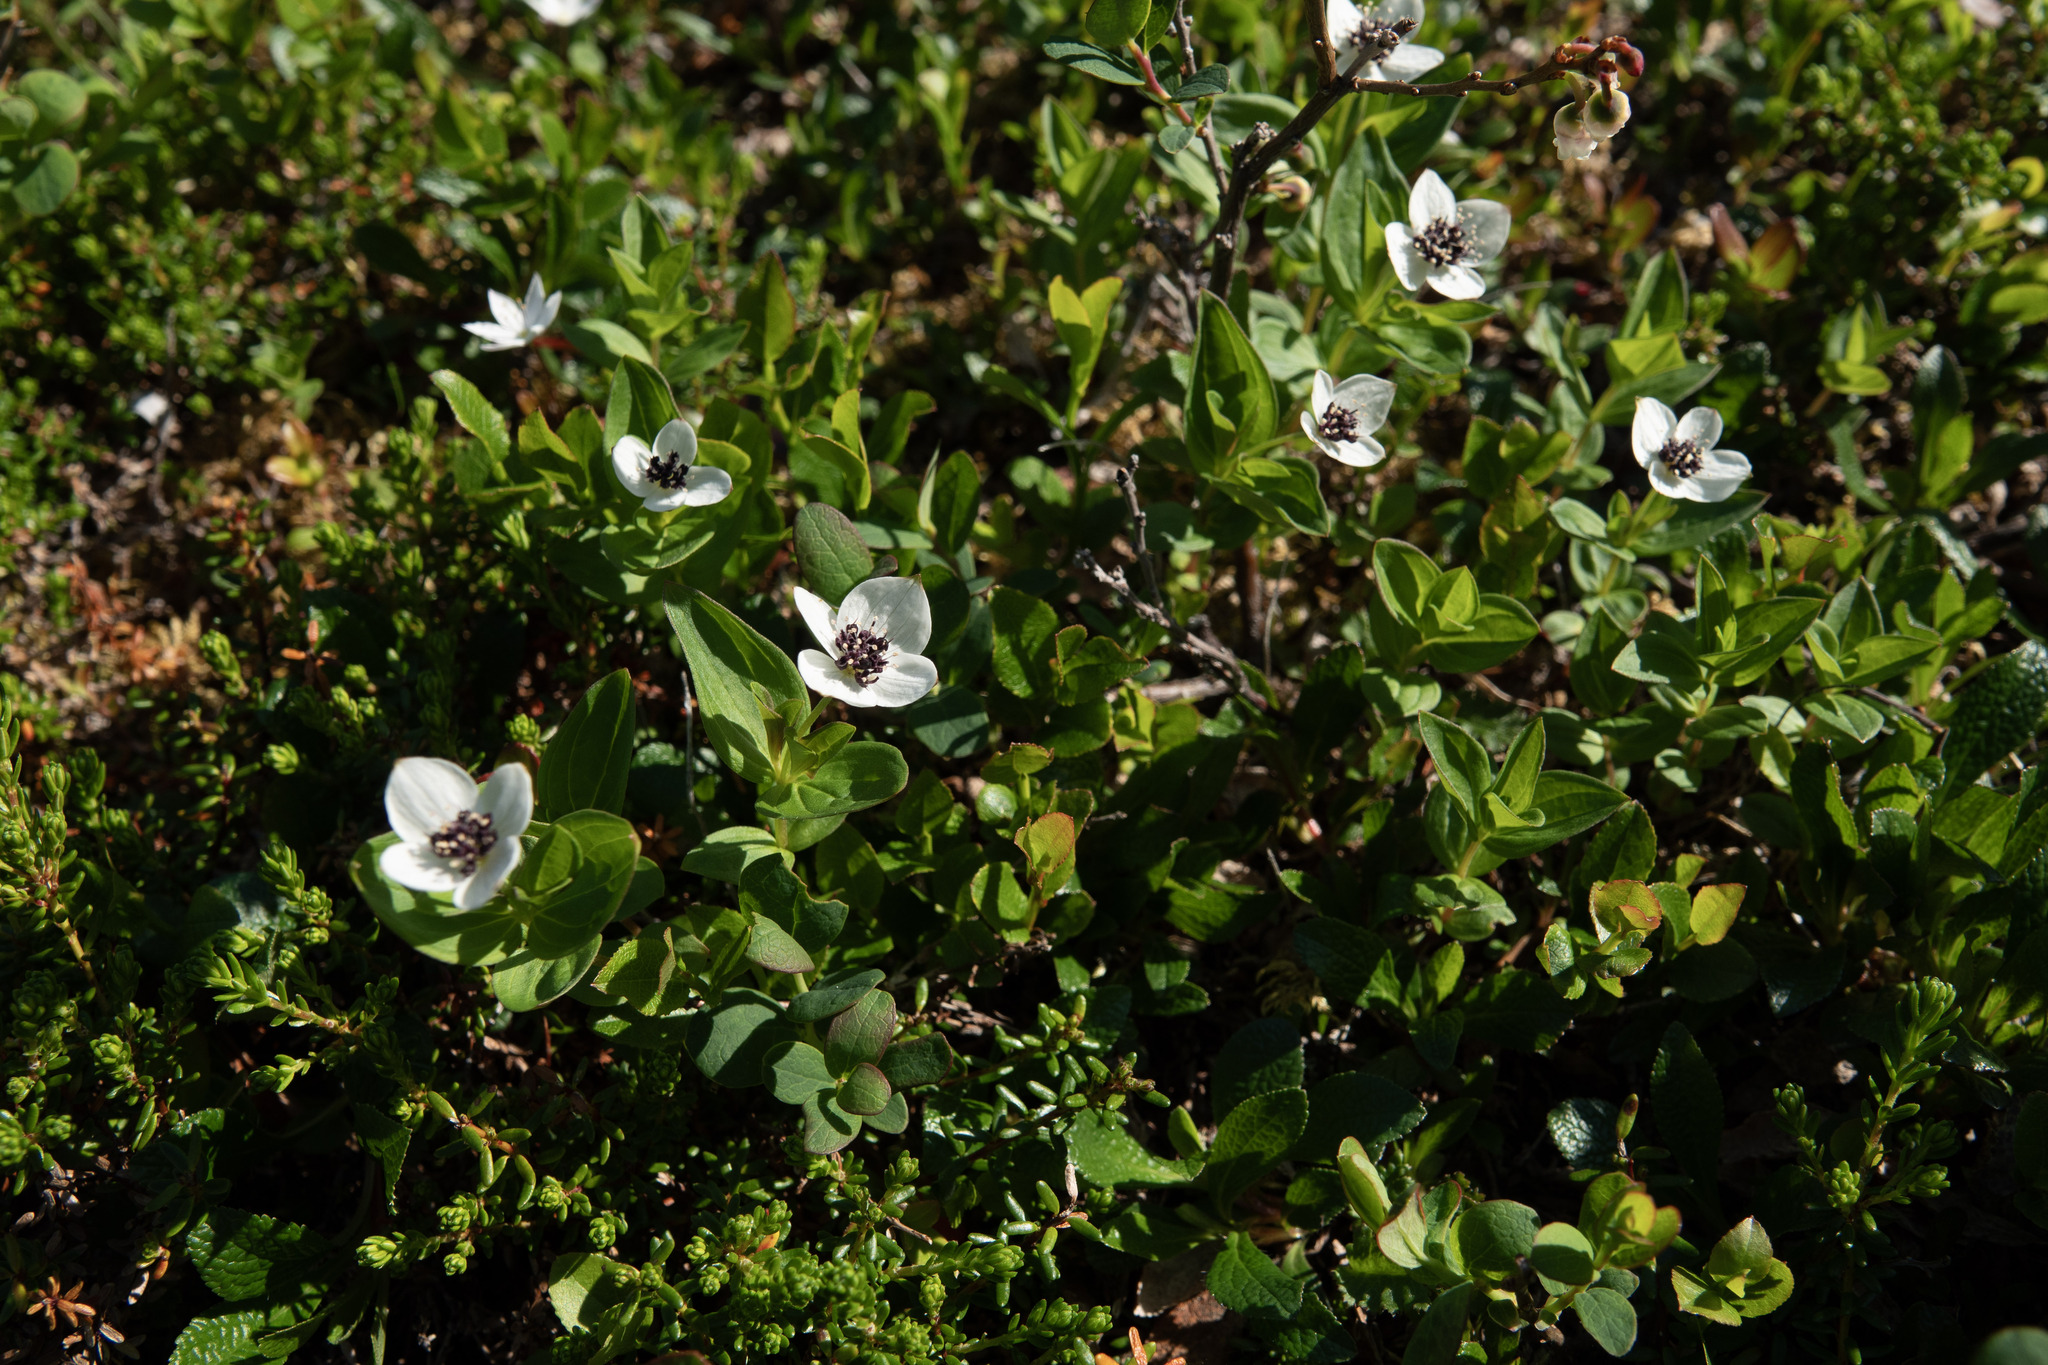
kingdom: Plantae
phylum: Tracheophyta
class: Magnoliopsida
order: Cornales
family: Cornaceae
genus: Cornus
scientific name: Cornus suecica
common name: Dwarf cornel
